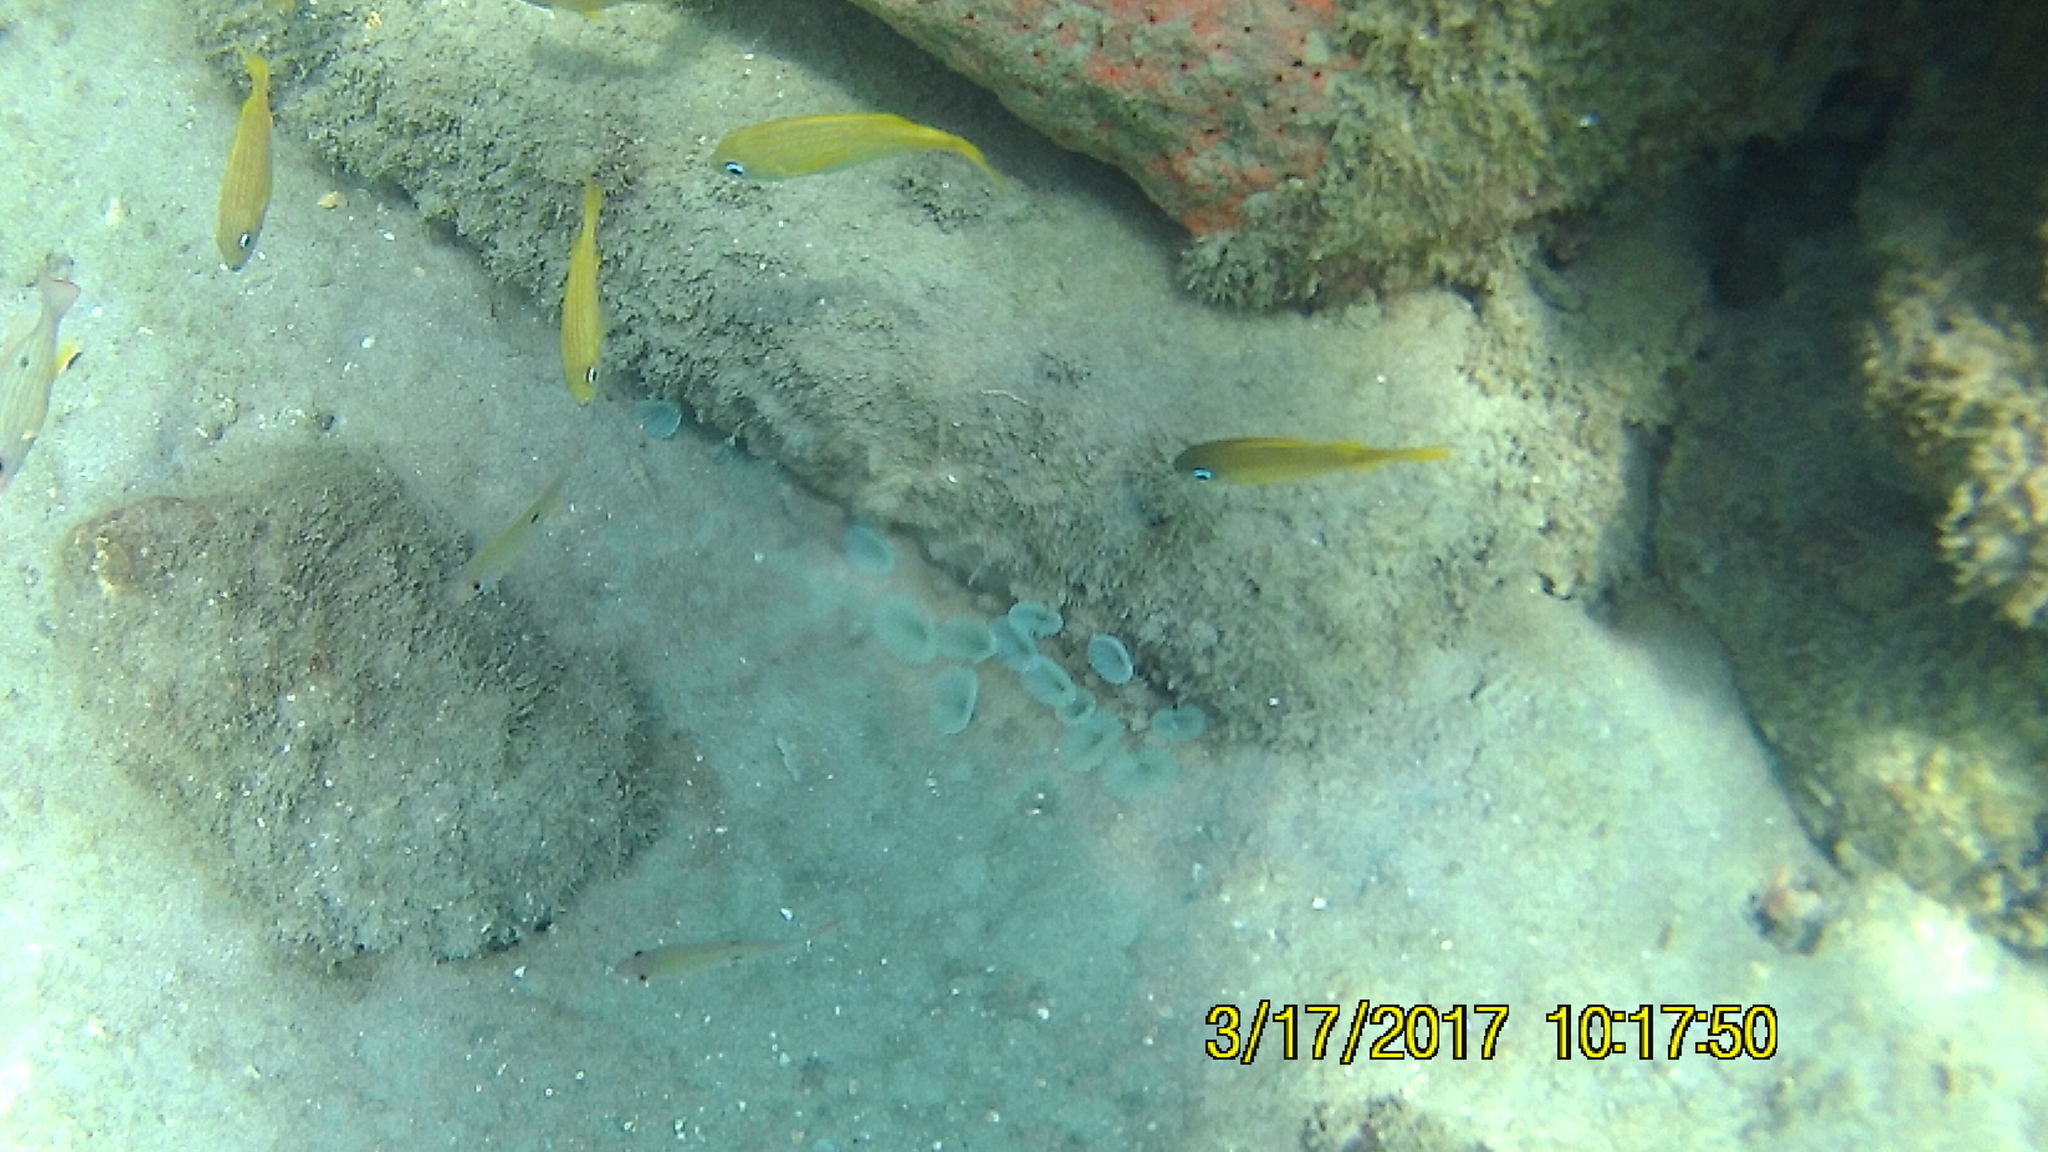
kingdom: Animalia
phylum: Chordata
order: Perciformes
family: Haemulidae
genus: Haemulon
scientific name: Haemulon flavolineatum
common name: French grunt
